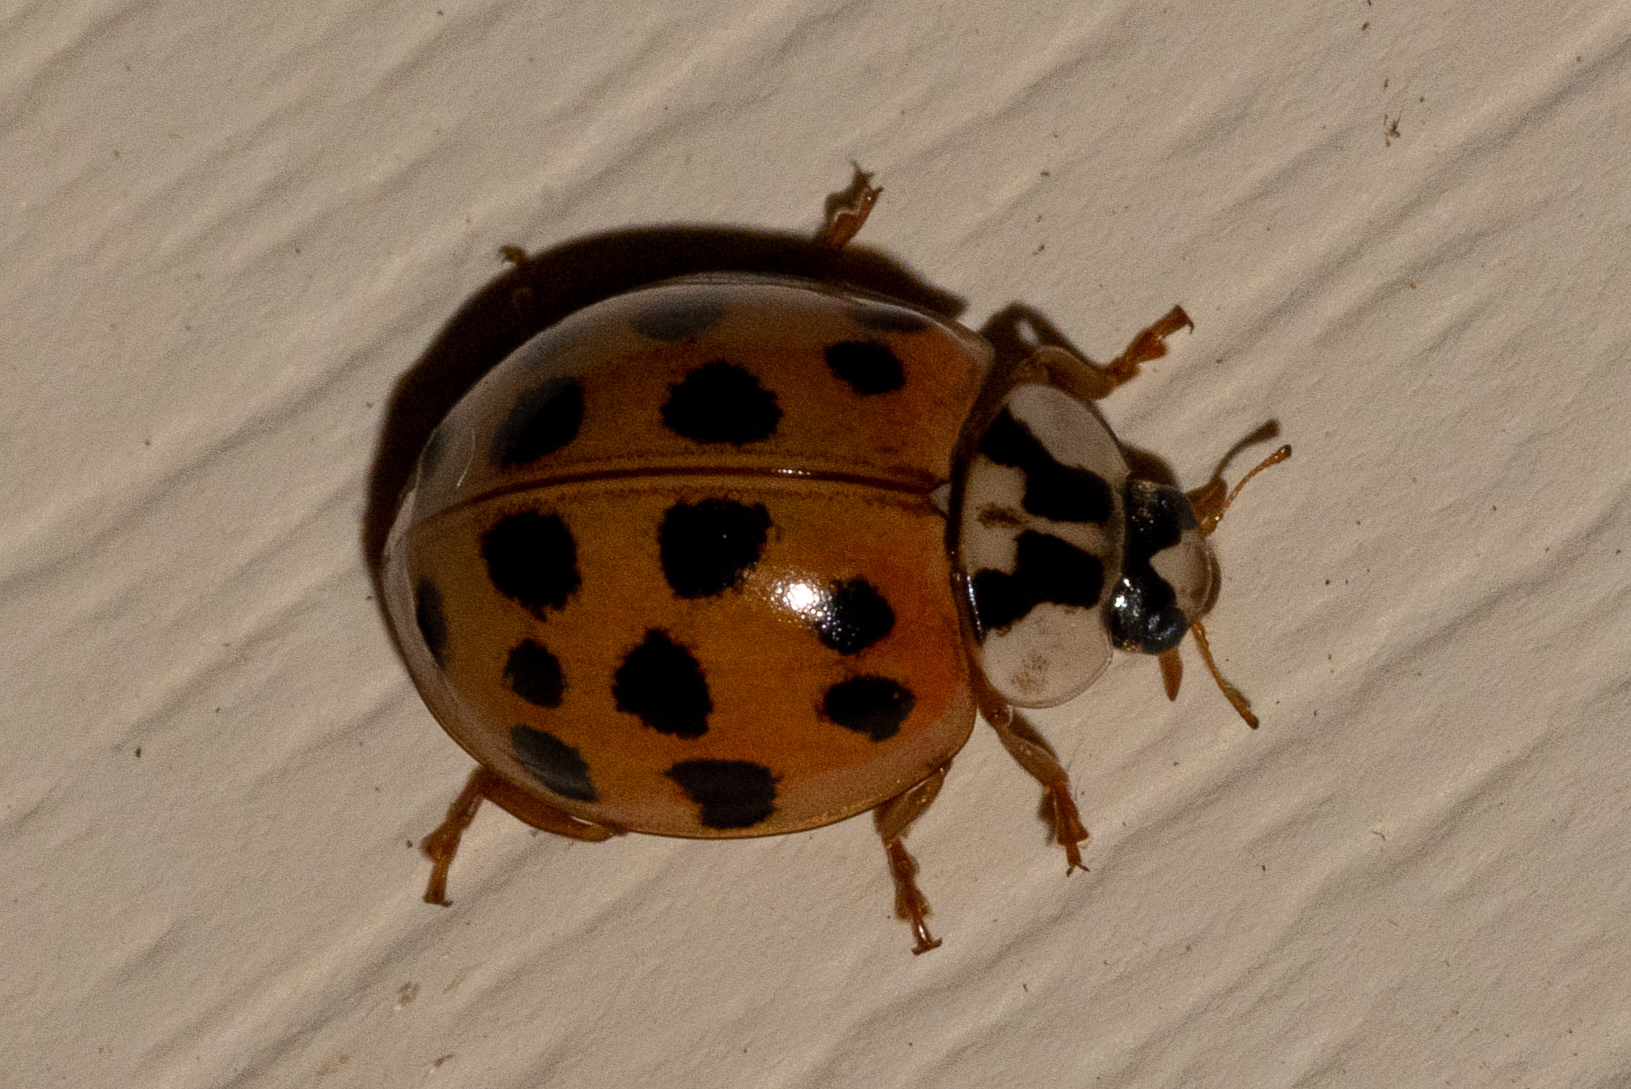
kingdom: Animalia
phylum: Arthropoda
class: Insecta
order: Coleoptera
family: Coccinellidae
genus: Harmonia
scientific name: Harmonia axyridis
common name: Harlequin ladybird
